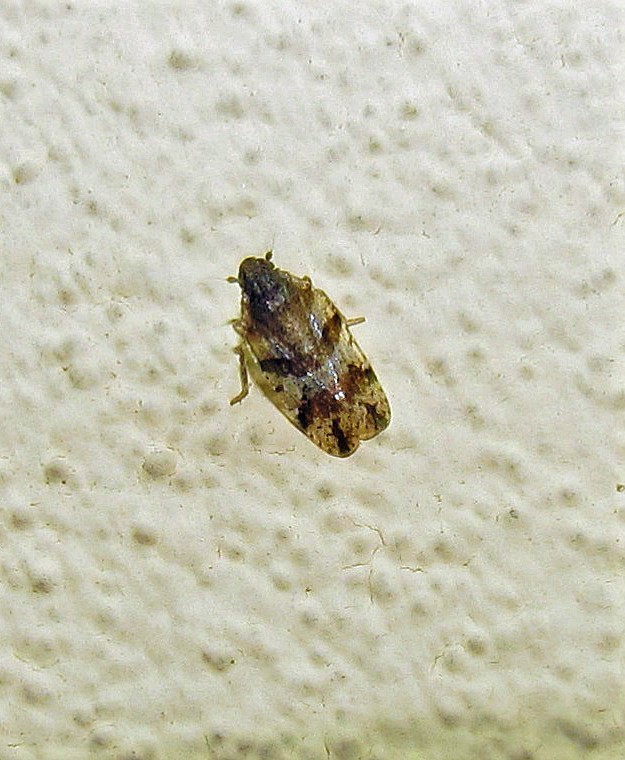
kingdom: Animalia
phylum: Arthropoda
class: Insecta
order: Hemiptera
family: Cixiidae
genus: Cixiosoma
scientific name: Cixiosoma bonaerense
